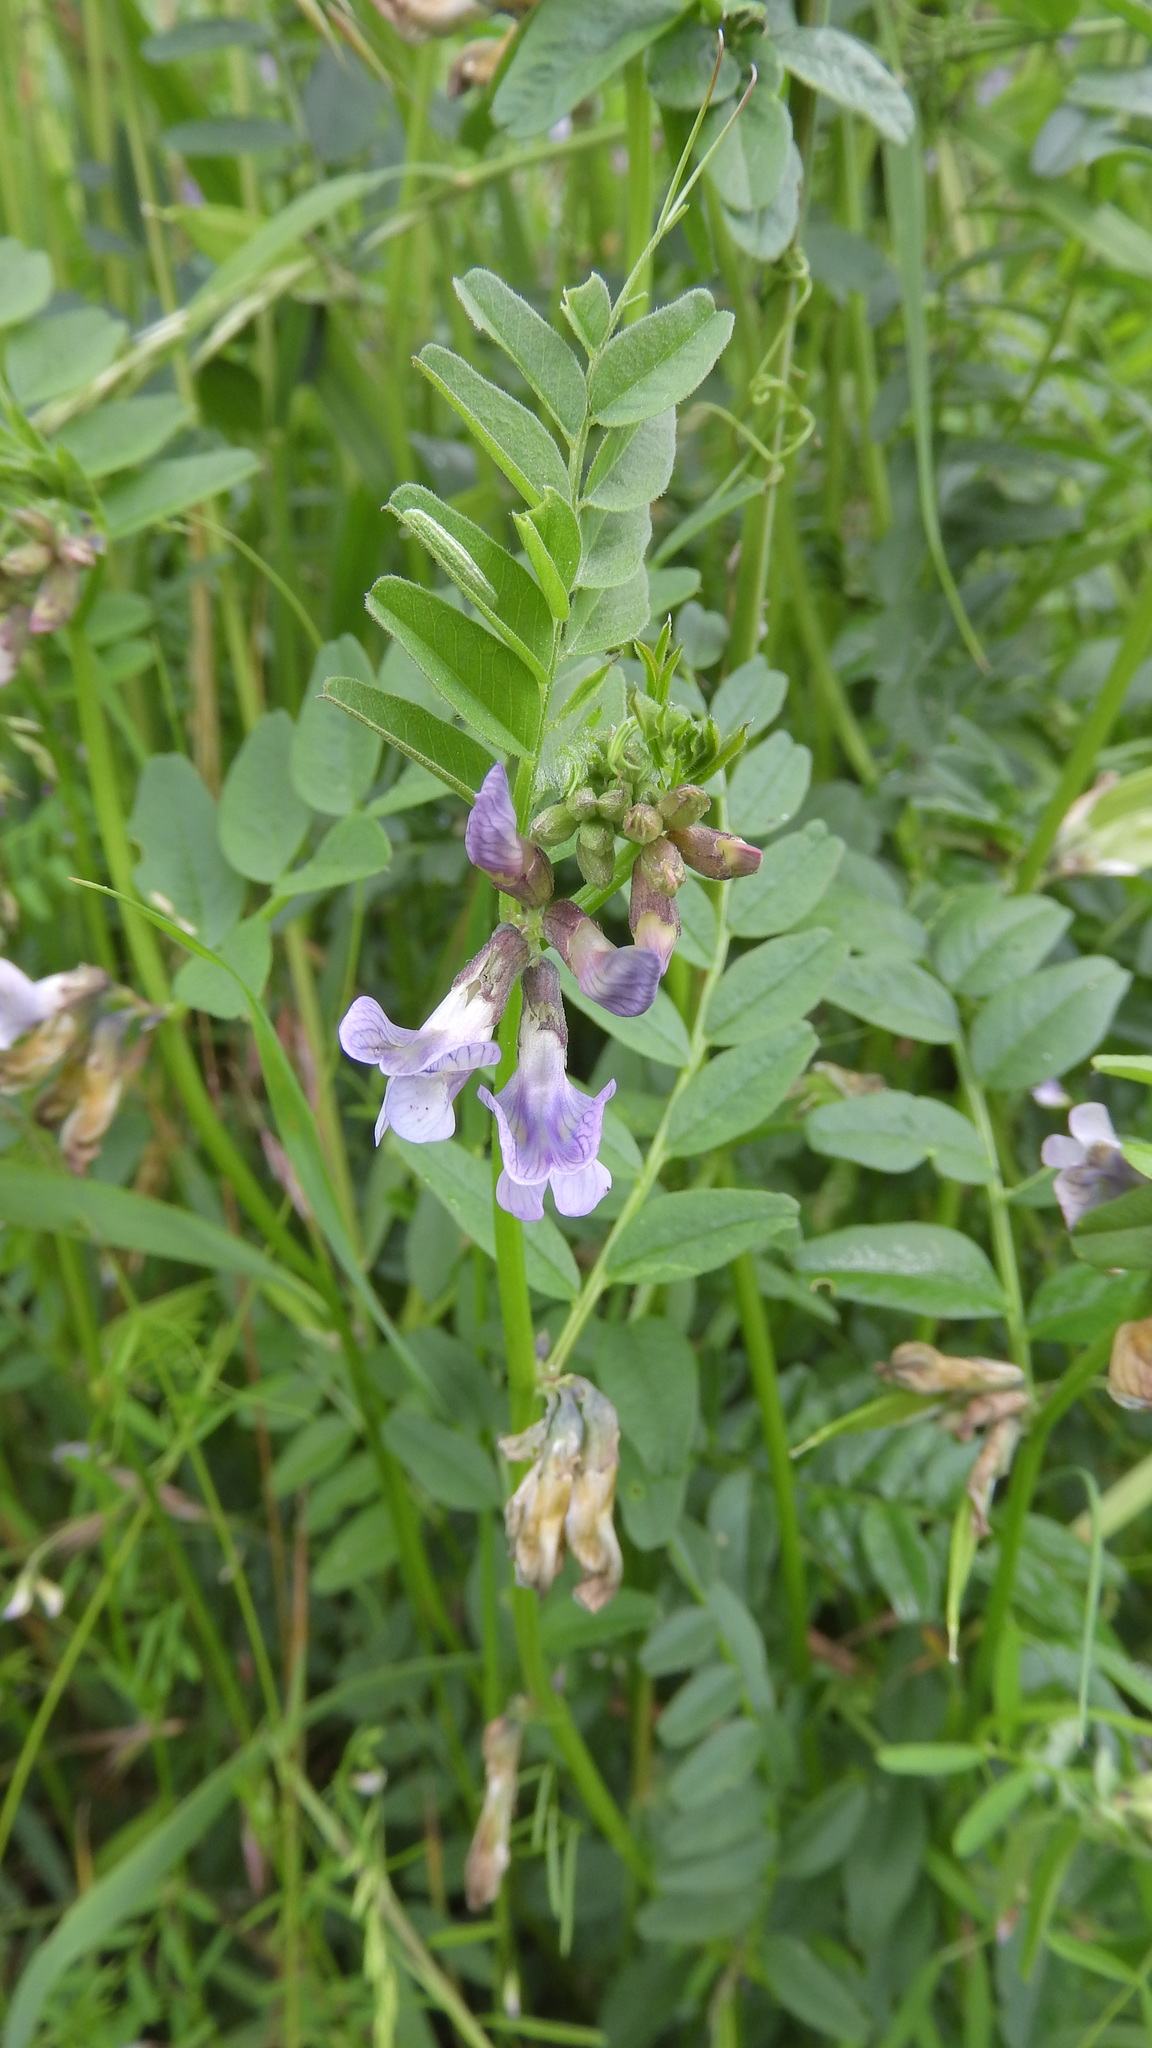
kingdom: Plantae
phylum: Tracheophyta
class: Magnoliopsida
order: Fabales
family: Fabaceae
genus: Vicia
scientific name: Vicia sepium
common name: Bush vetch
